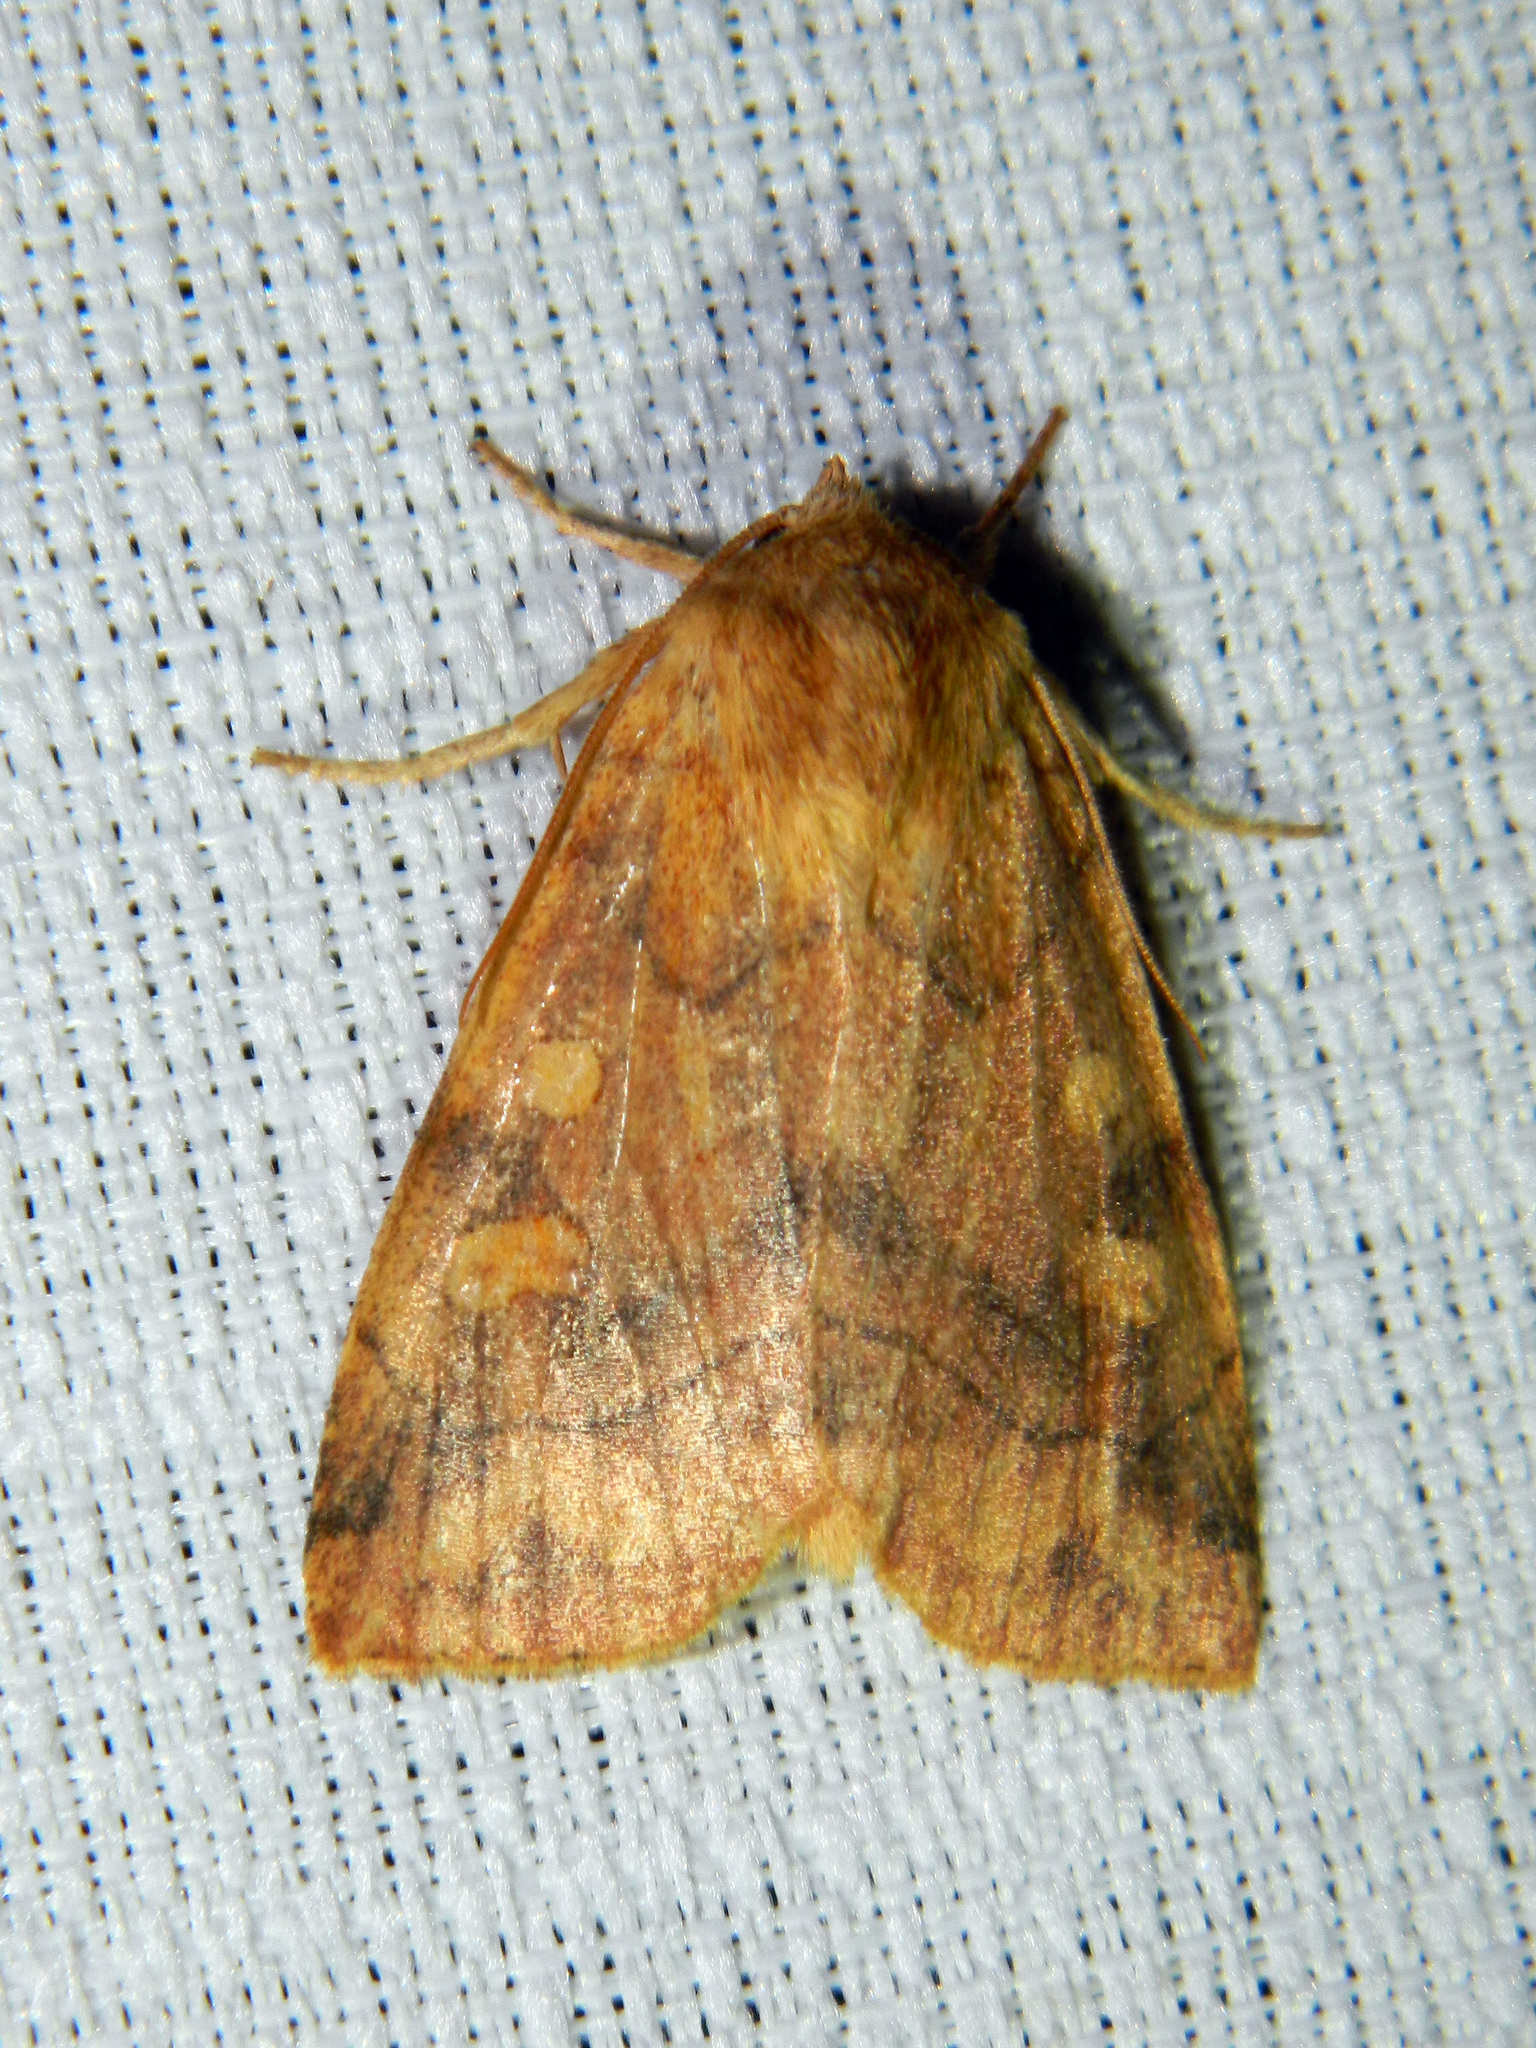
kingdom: Animalia
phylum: Arthropoda
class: Insecta
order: Lepidoptera
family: Noctuidae
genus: Enargia
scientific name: Enargia decolor
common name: Aspen twoleaf tier moth
